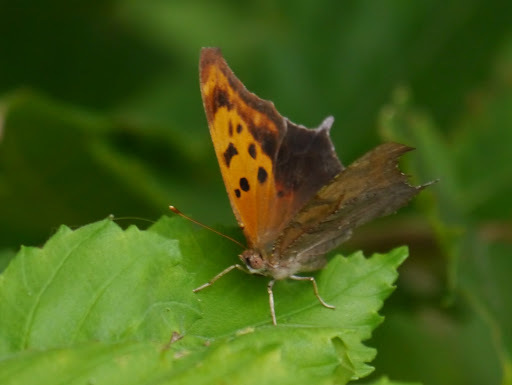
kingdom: Animalia
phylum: Arthropoda
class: Insecta
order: Lepidoptera
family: Nymphalidae
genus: Polygonia
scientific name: Polygonia interrogationis
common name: Question mark
